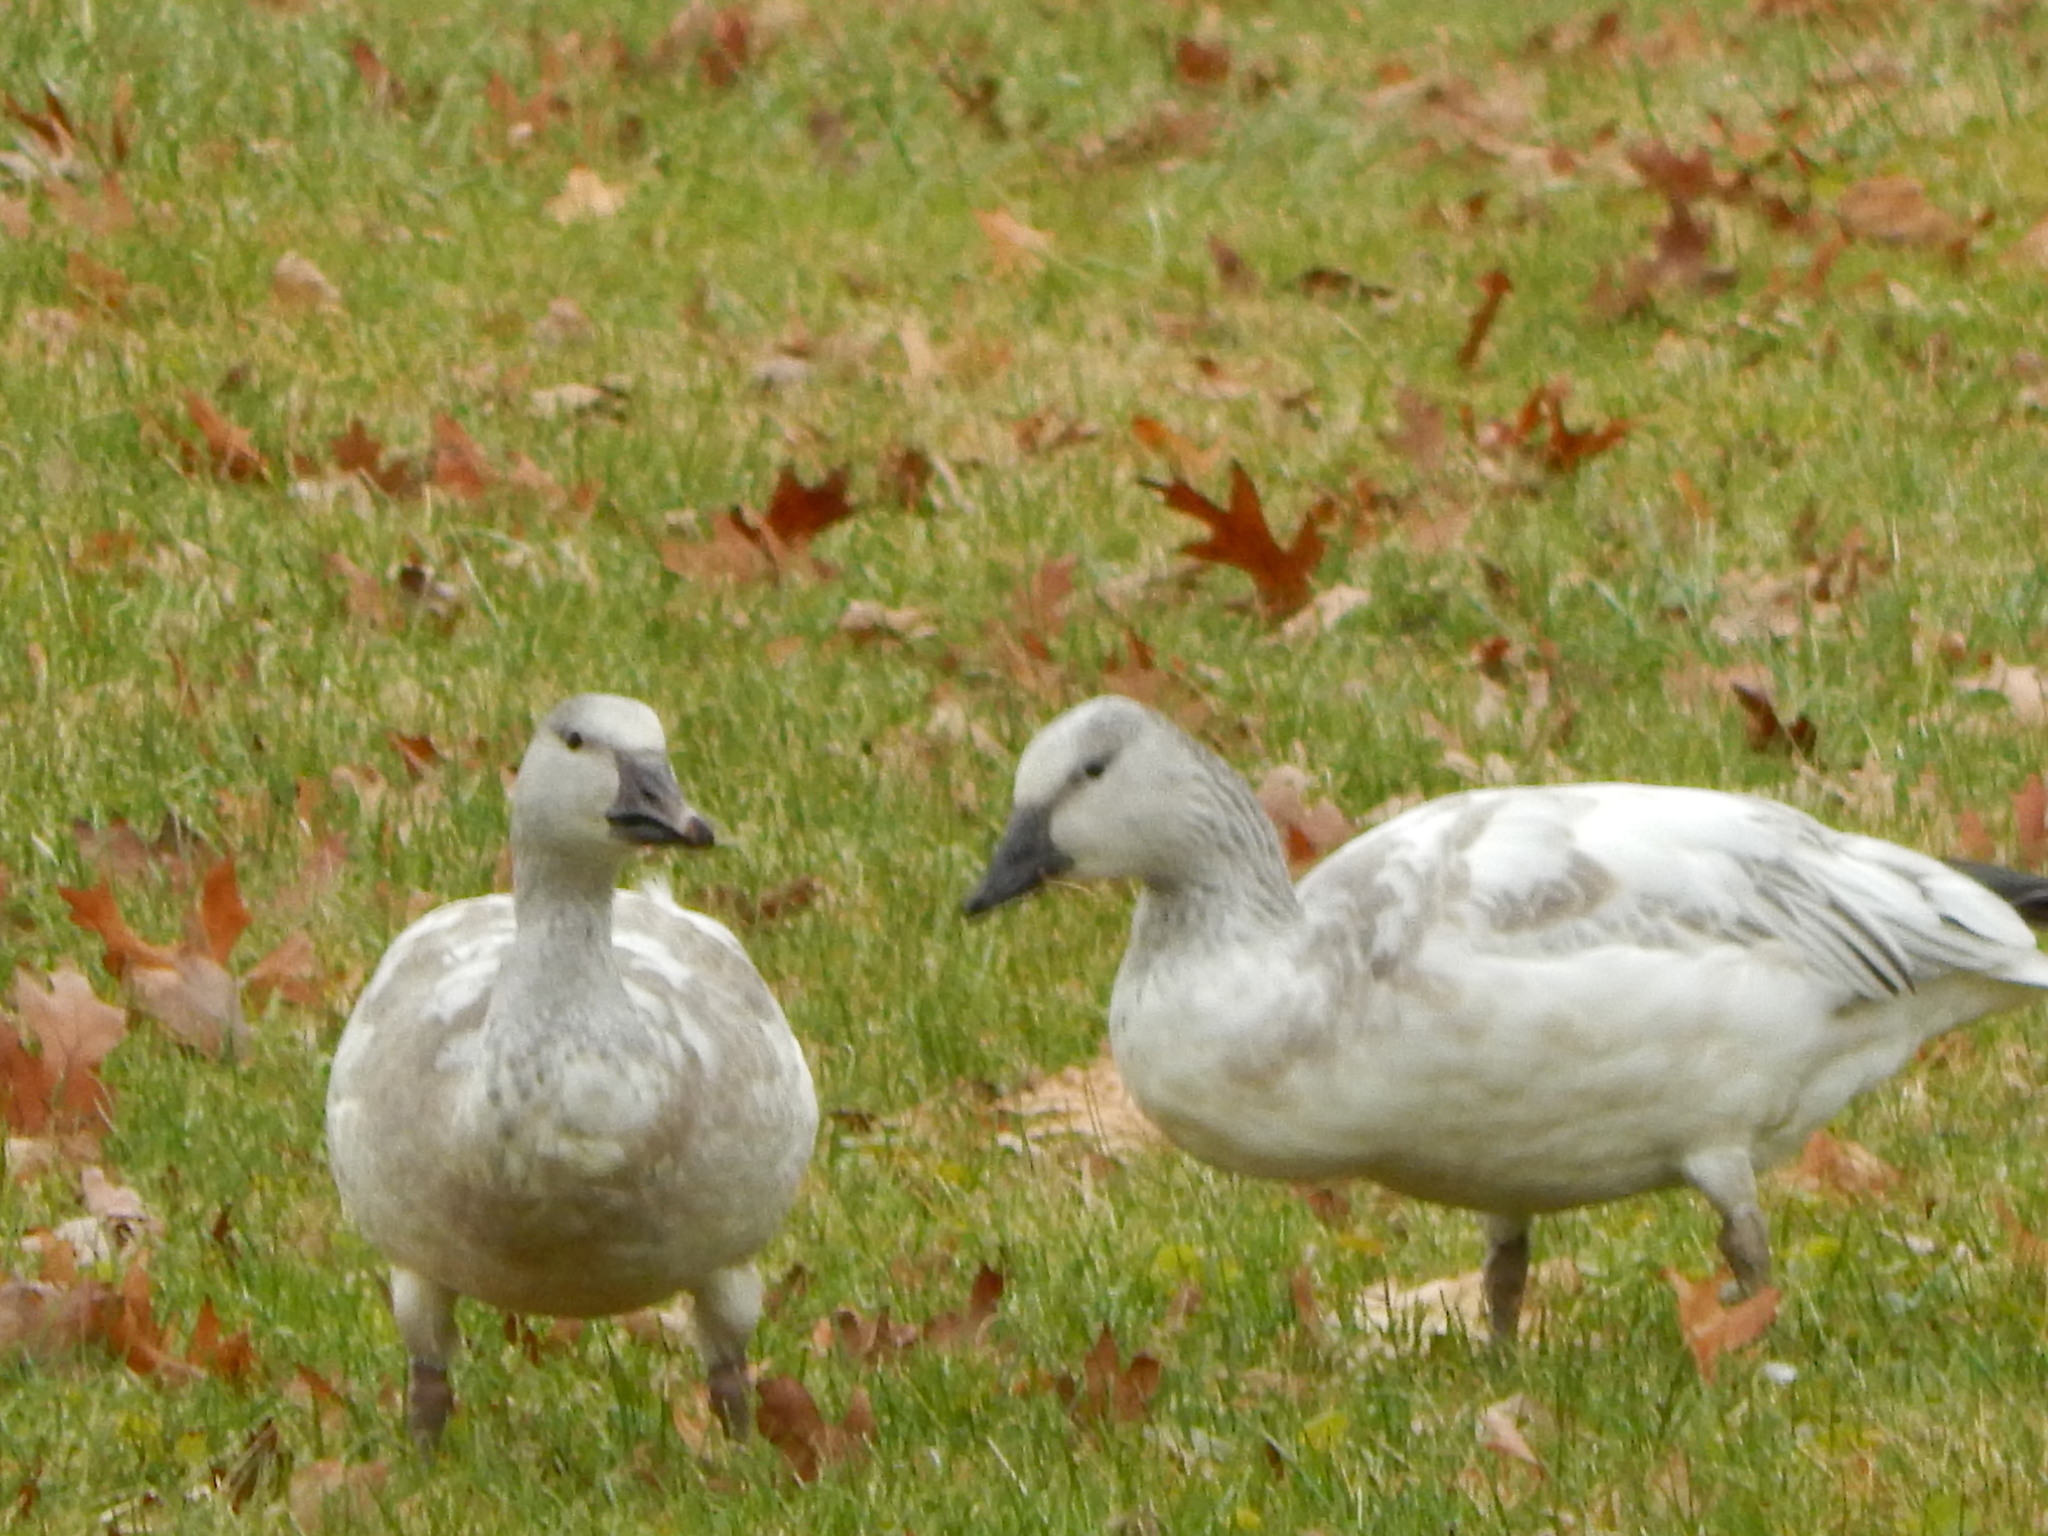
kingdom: Animalia
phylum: Chordata
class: Aves
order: Anseriformes
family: Anatidae
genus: Anser
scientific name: Anser caerulescens
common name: Snow goose
